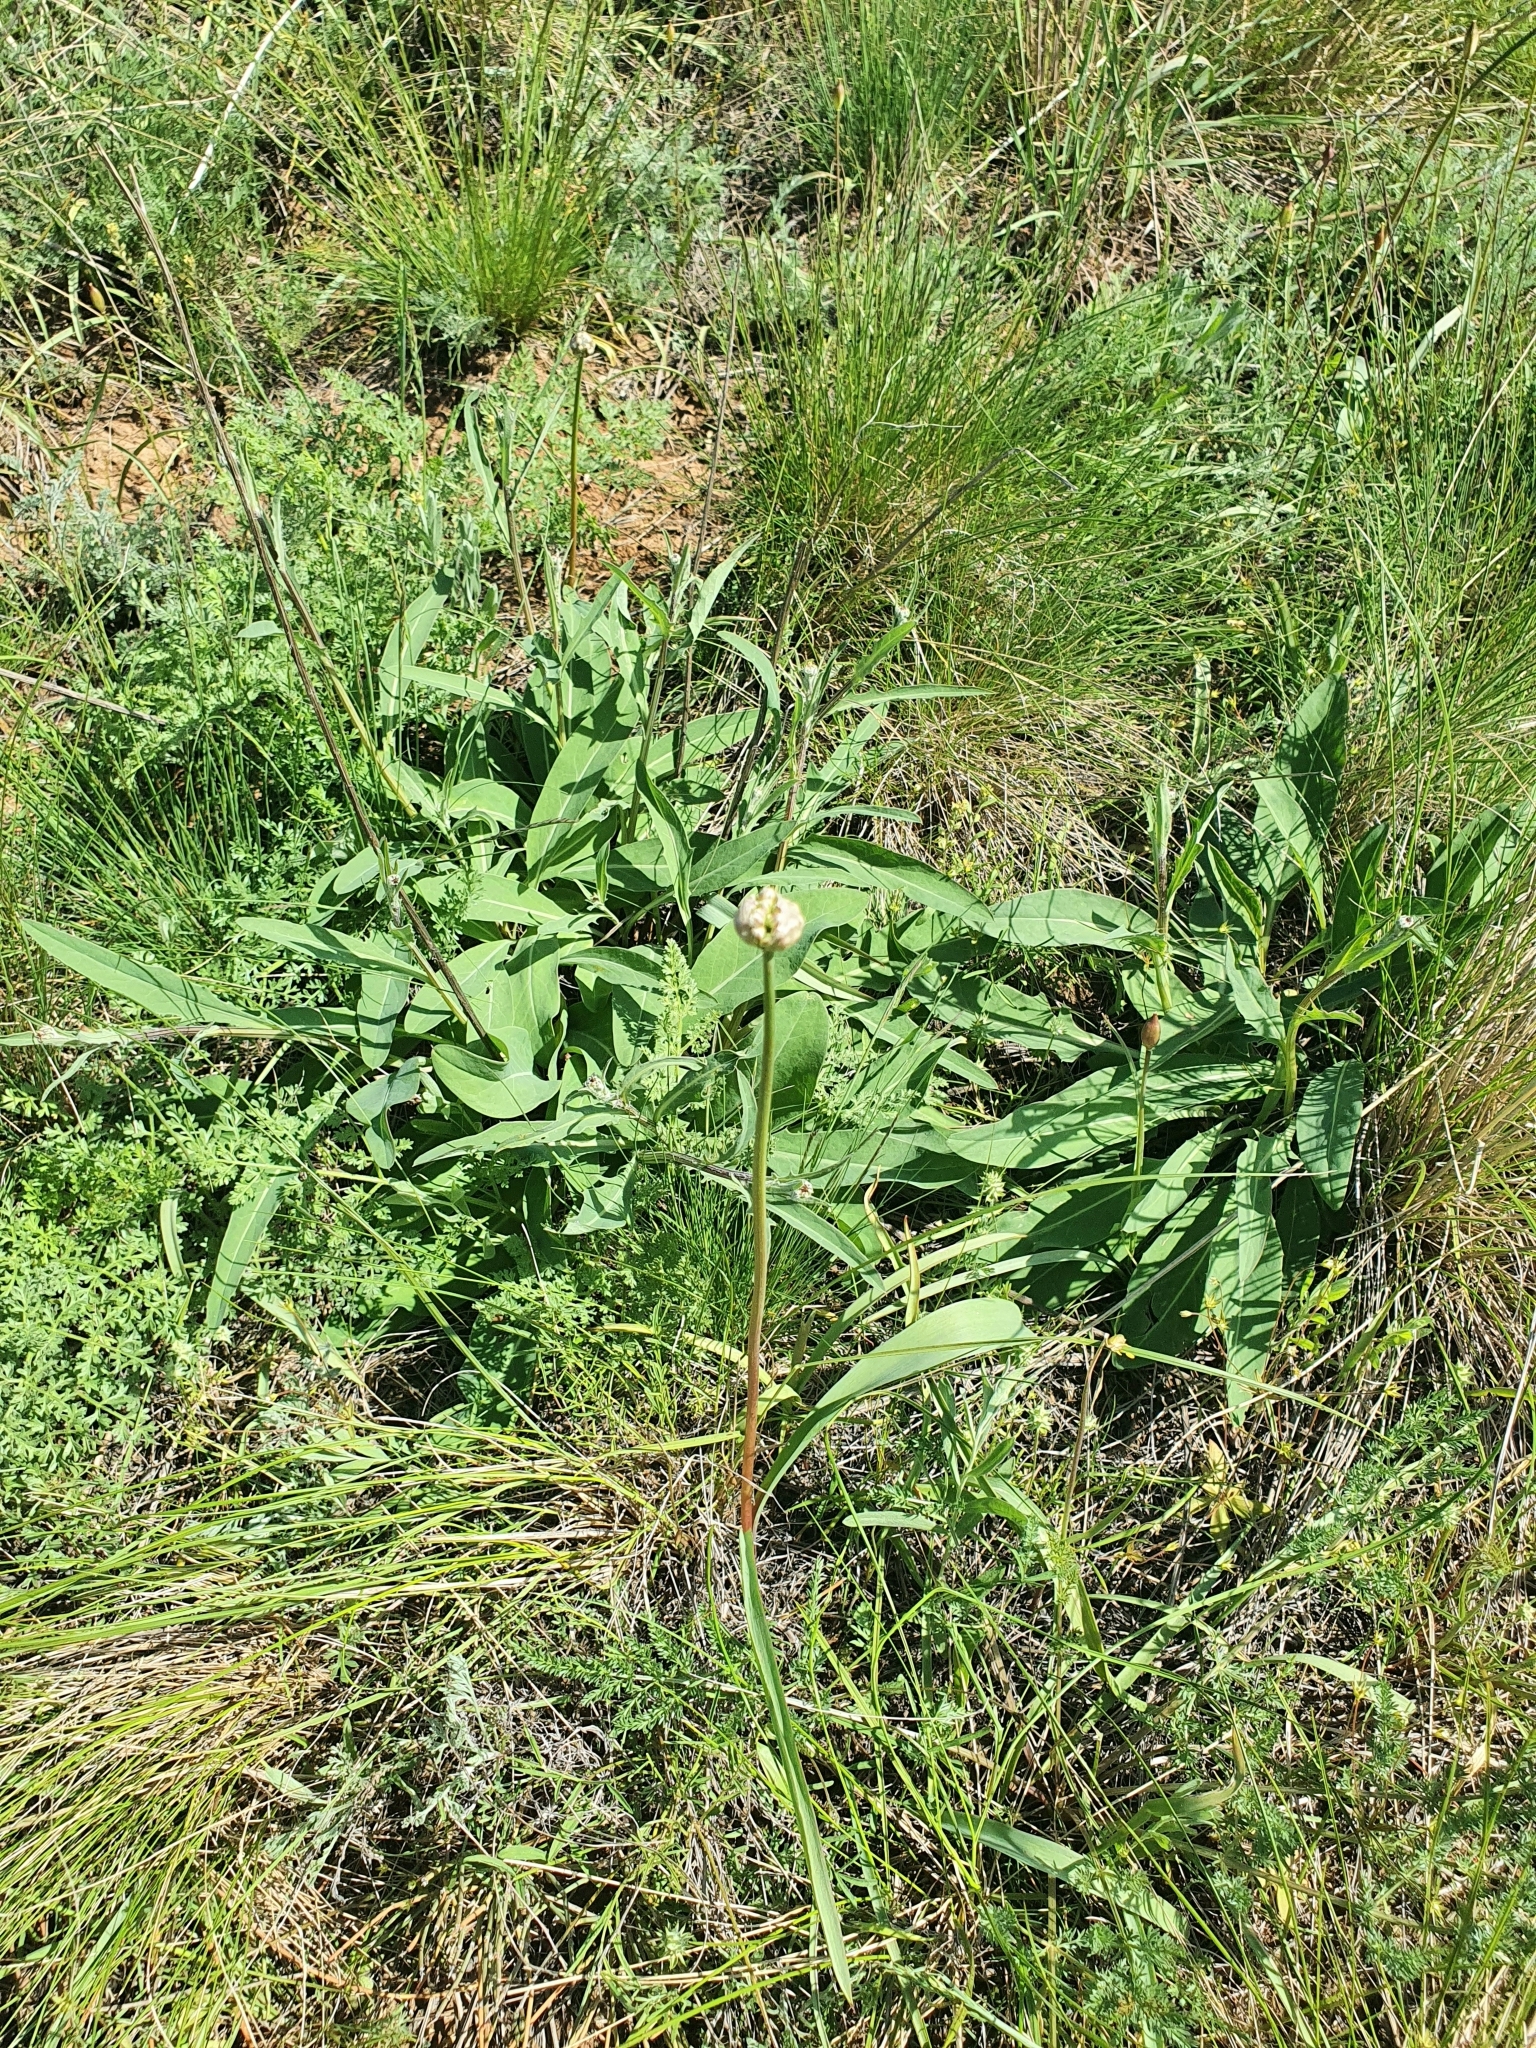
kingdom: Plantae
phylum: Tracheophyta
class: Liliopsida
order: Asparagales
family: Amaryllidaceae
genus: Allium
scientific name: Allium tulipifolium
